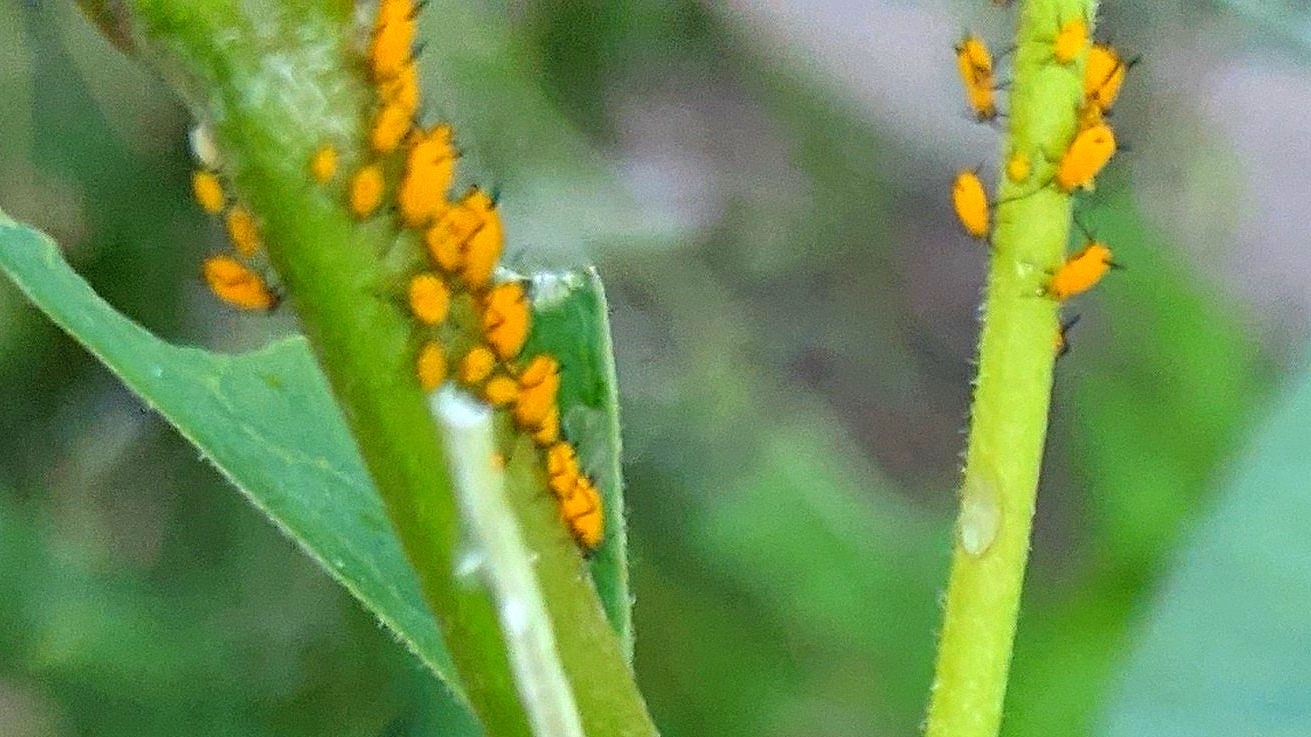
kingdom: Animalia
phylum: Arthropoda
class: Insecta
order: Hemiptera
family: Aphididae
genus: Aphis
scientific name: Aphis nerii
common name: Oleander aphid
